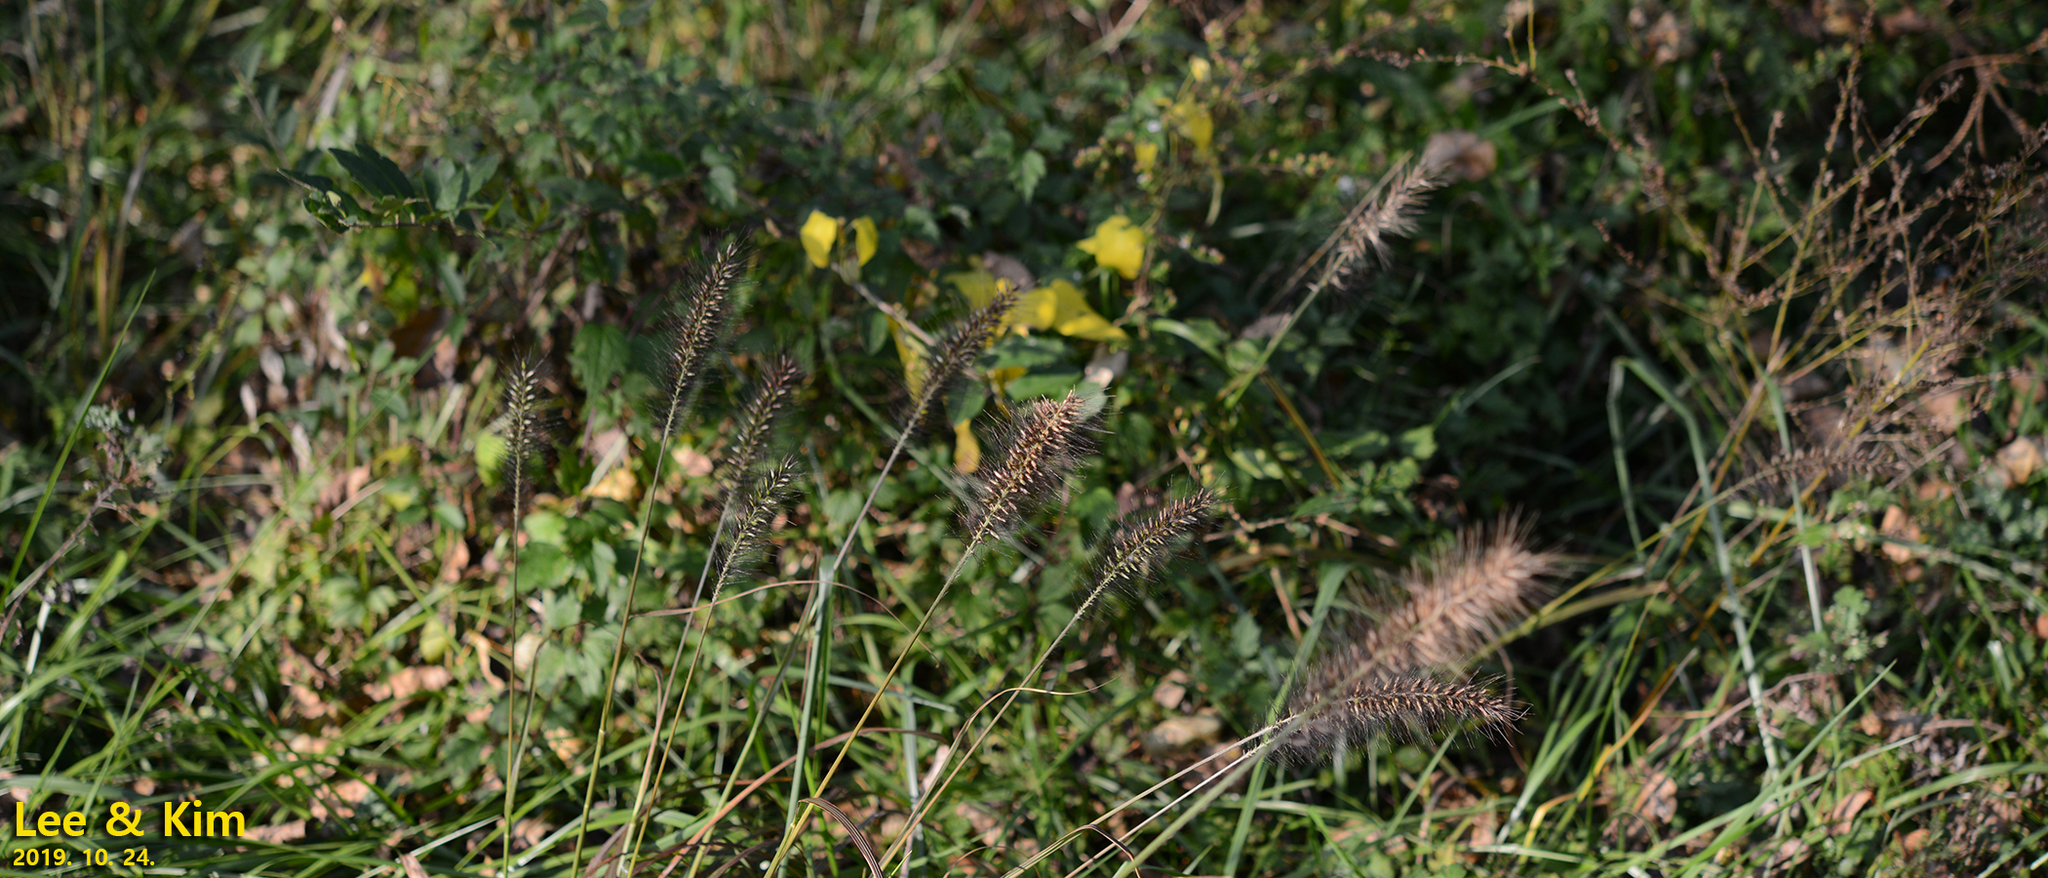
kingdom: Plantae
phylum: Tracheophyta
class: Liliopsida
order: Poales
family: Poaceae
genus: Cenchrus
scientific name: Cenchrus alopecuroides
